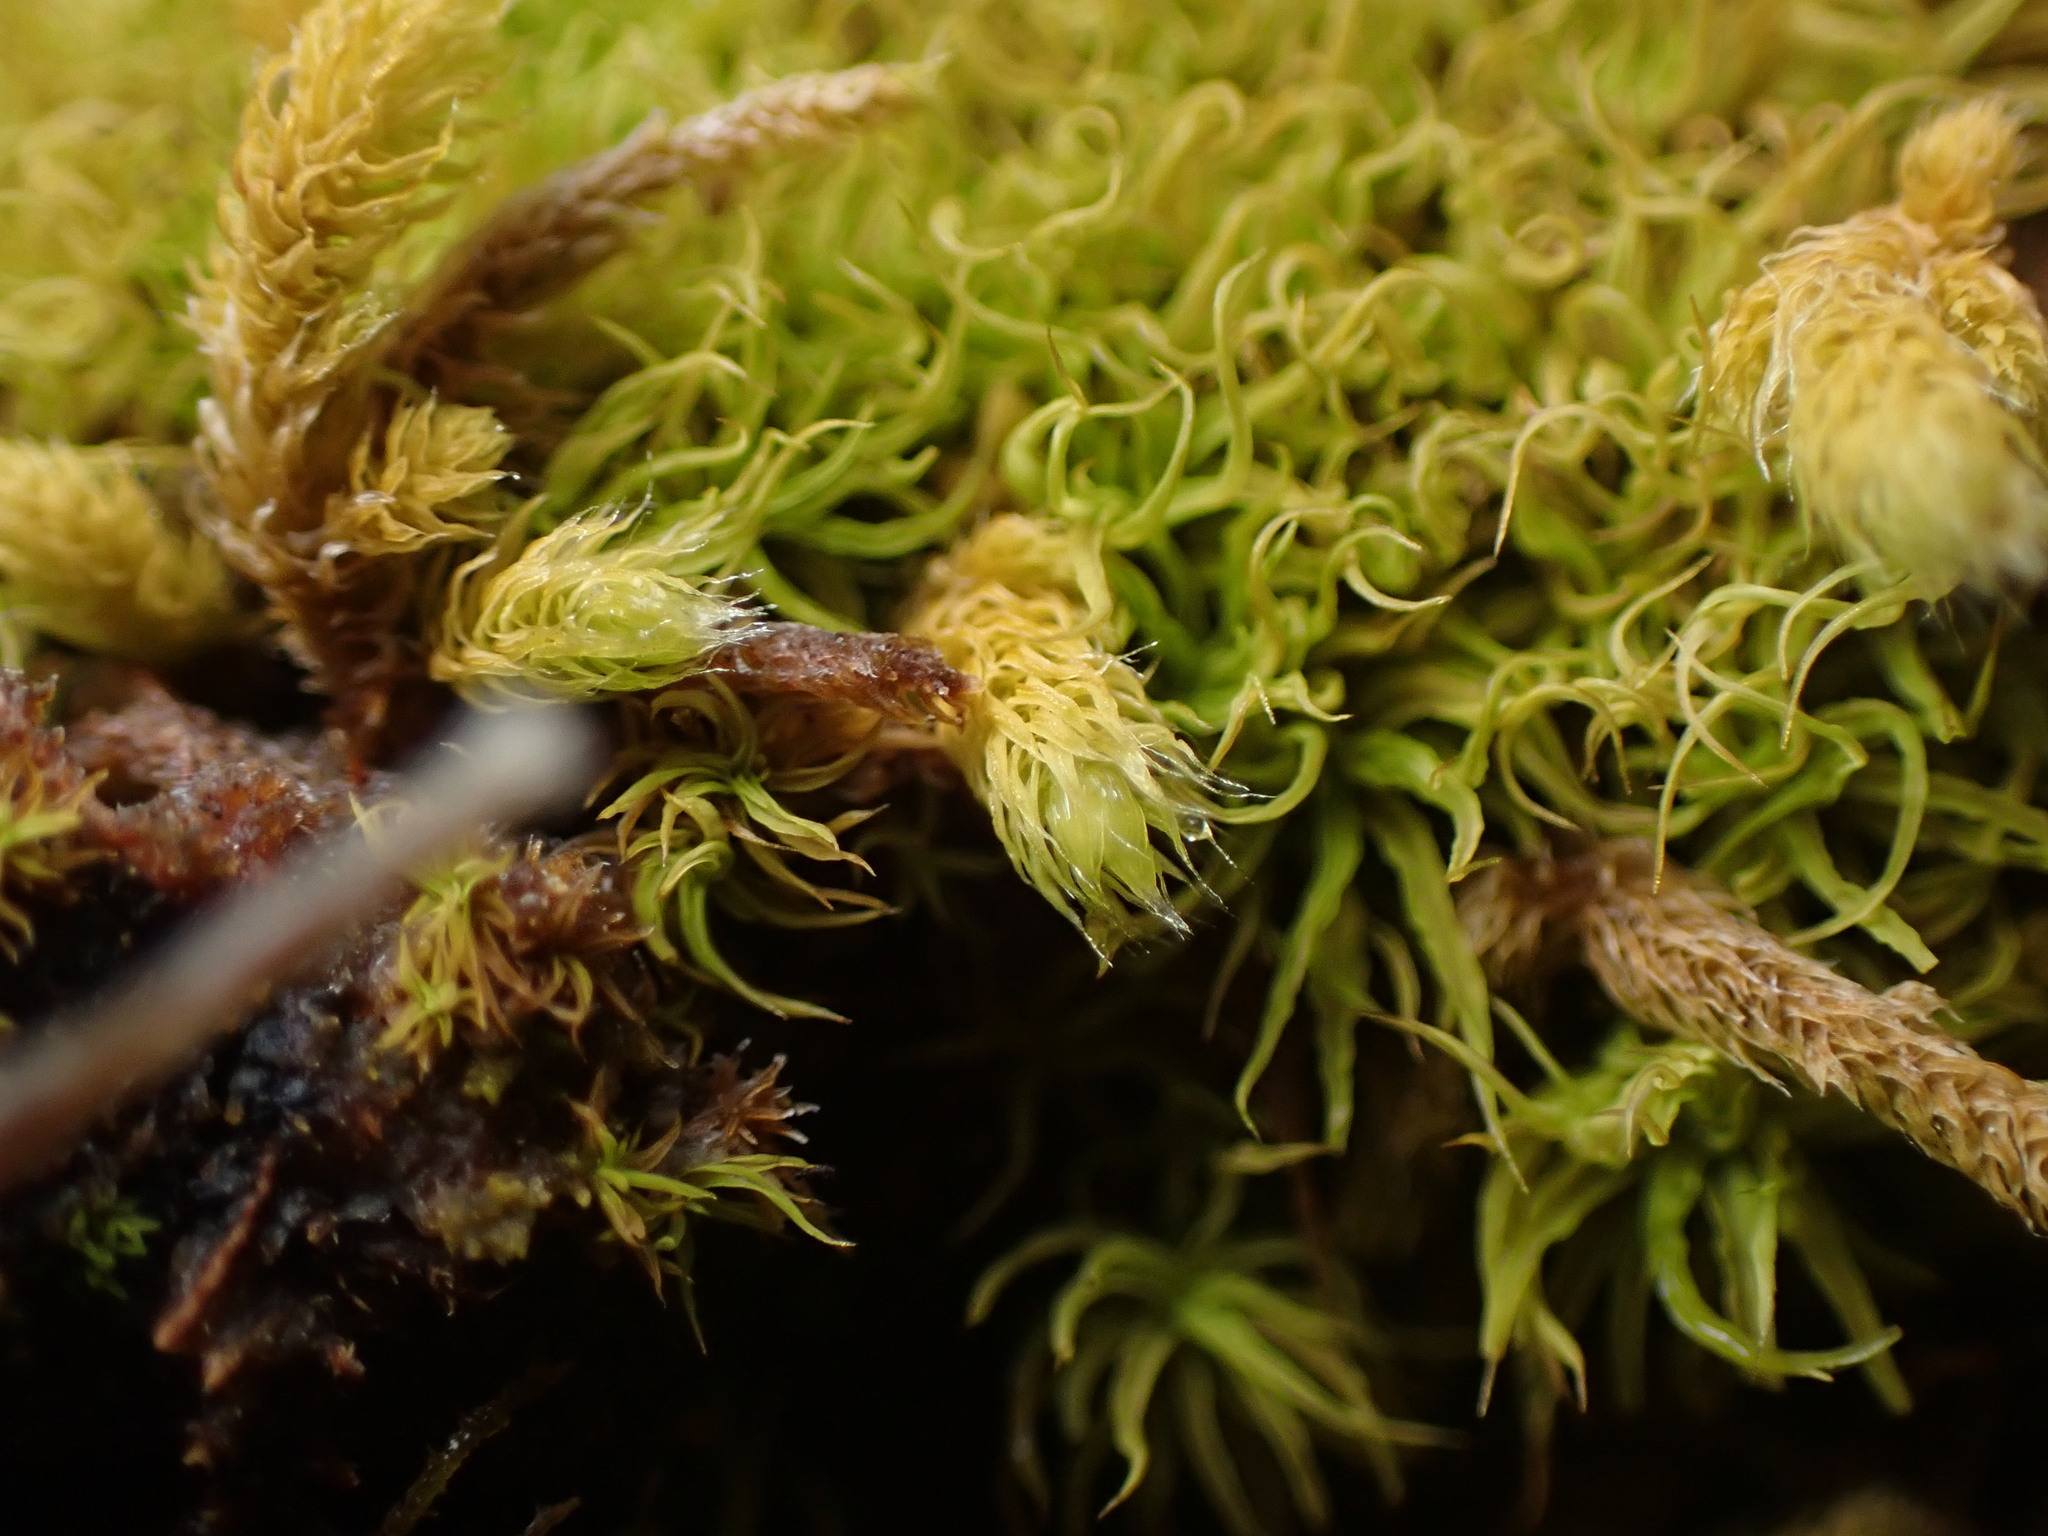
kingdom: Plantae
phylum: Bryophyta
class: Bryopsida
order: Hypnales
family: Brachytheciaceae
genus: Claopodium
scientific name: Claopodium crispifolium
